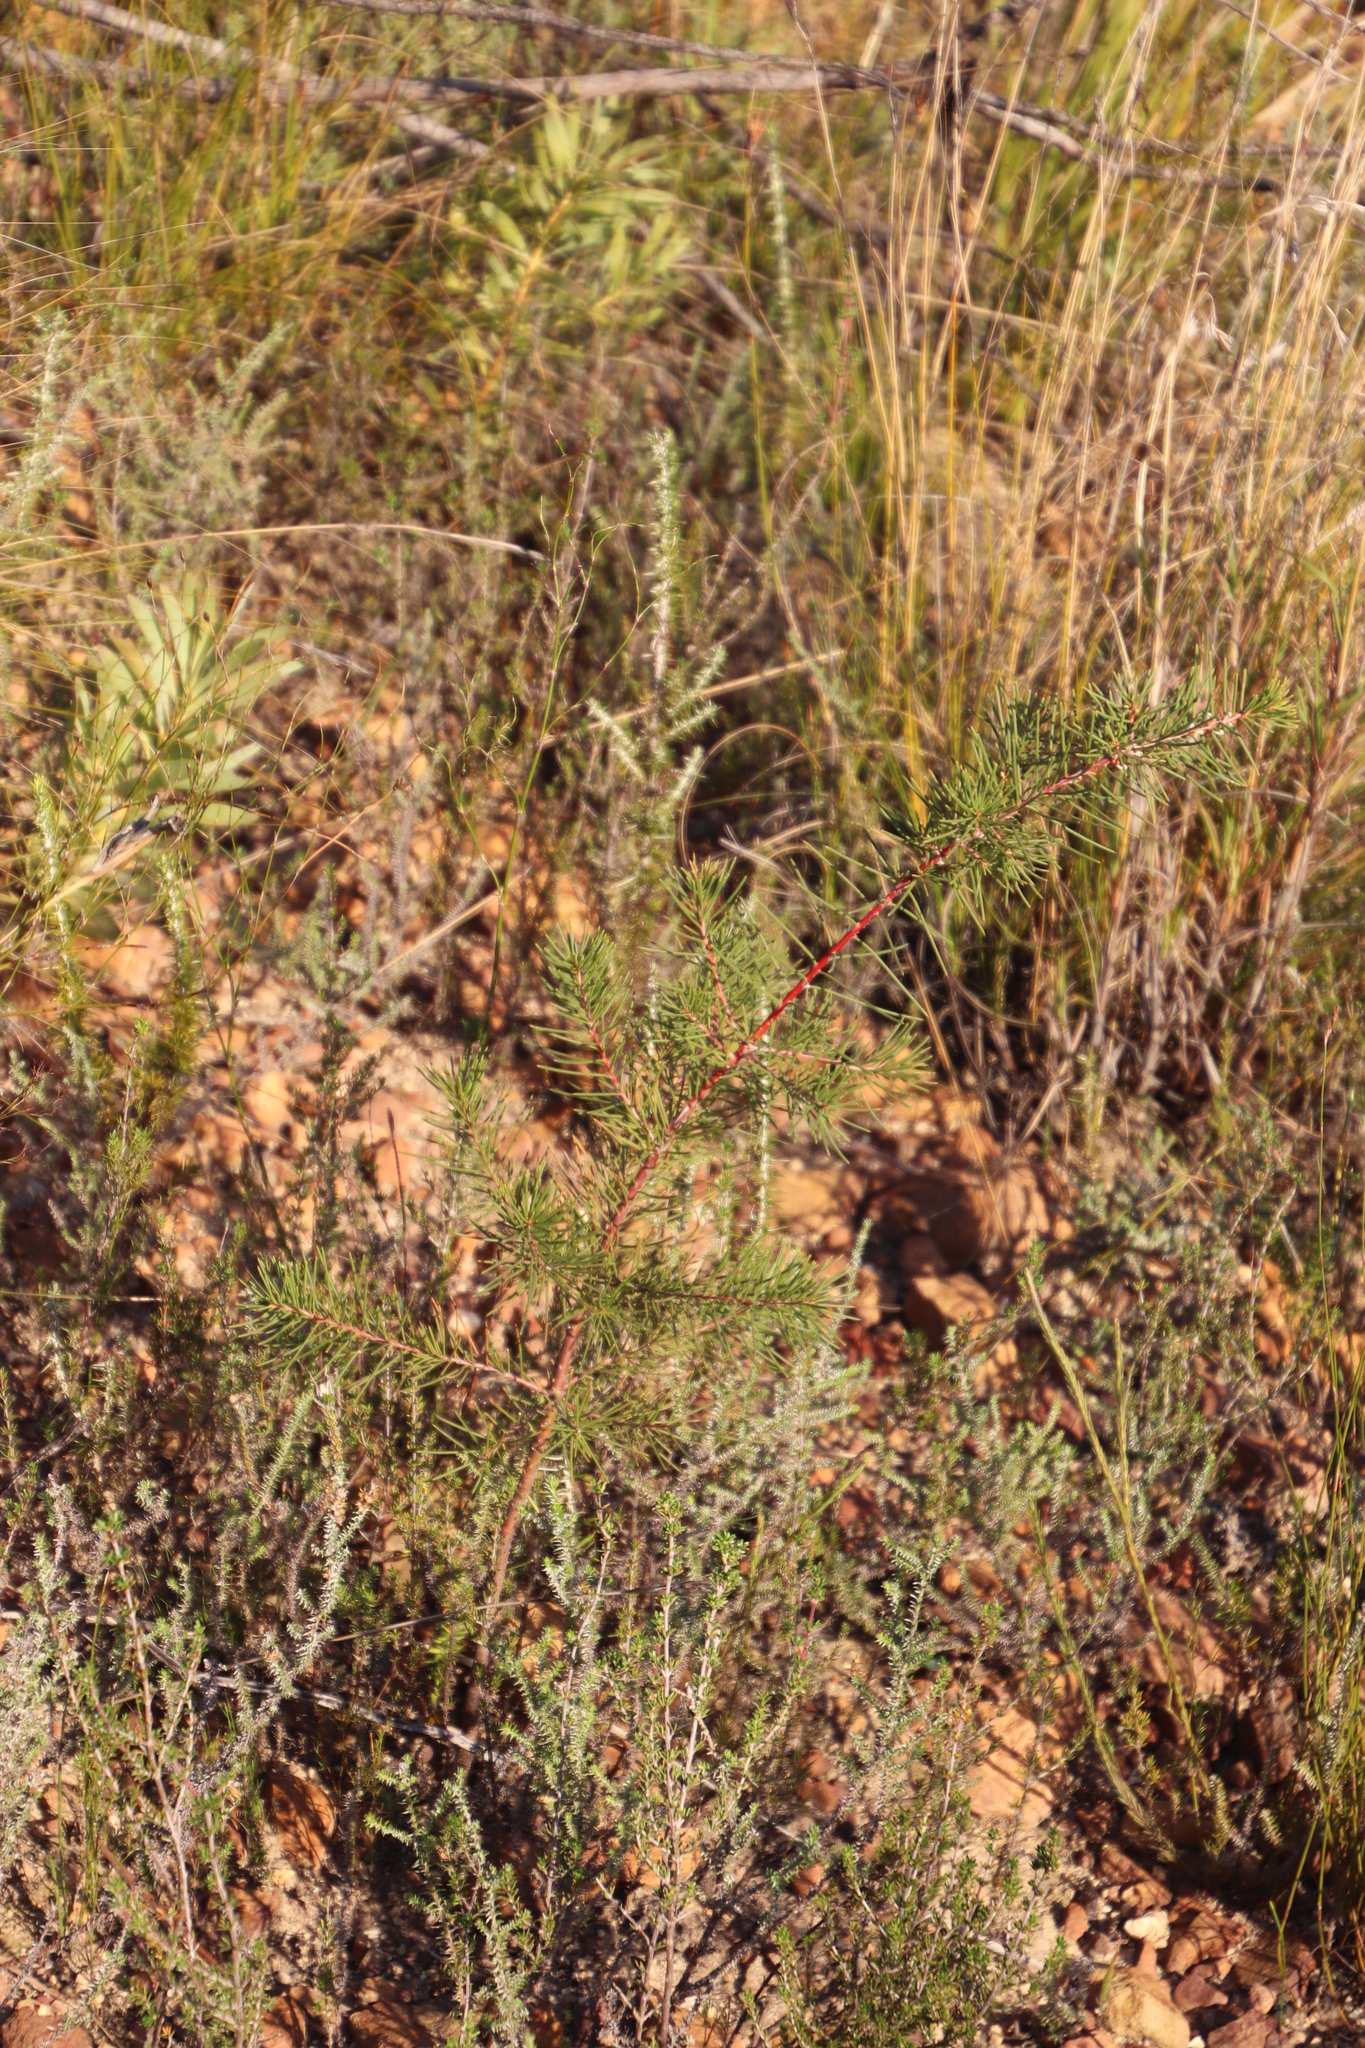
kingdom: Plantae
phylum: Tracheophyta
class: Magnoliopsida
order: Proteales
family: Proteaceae
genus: Hakea
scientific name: Hakea sericea
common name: Needle bush
